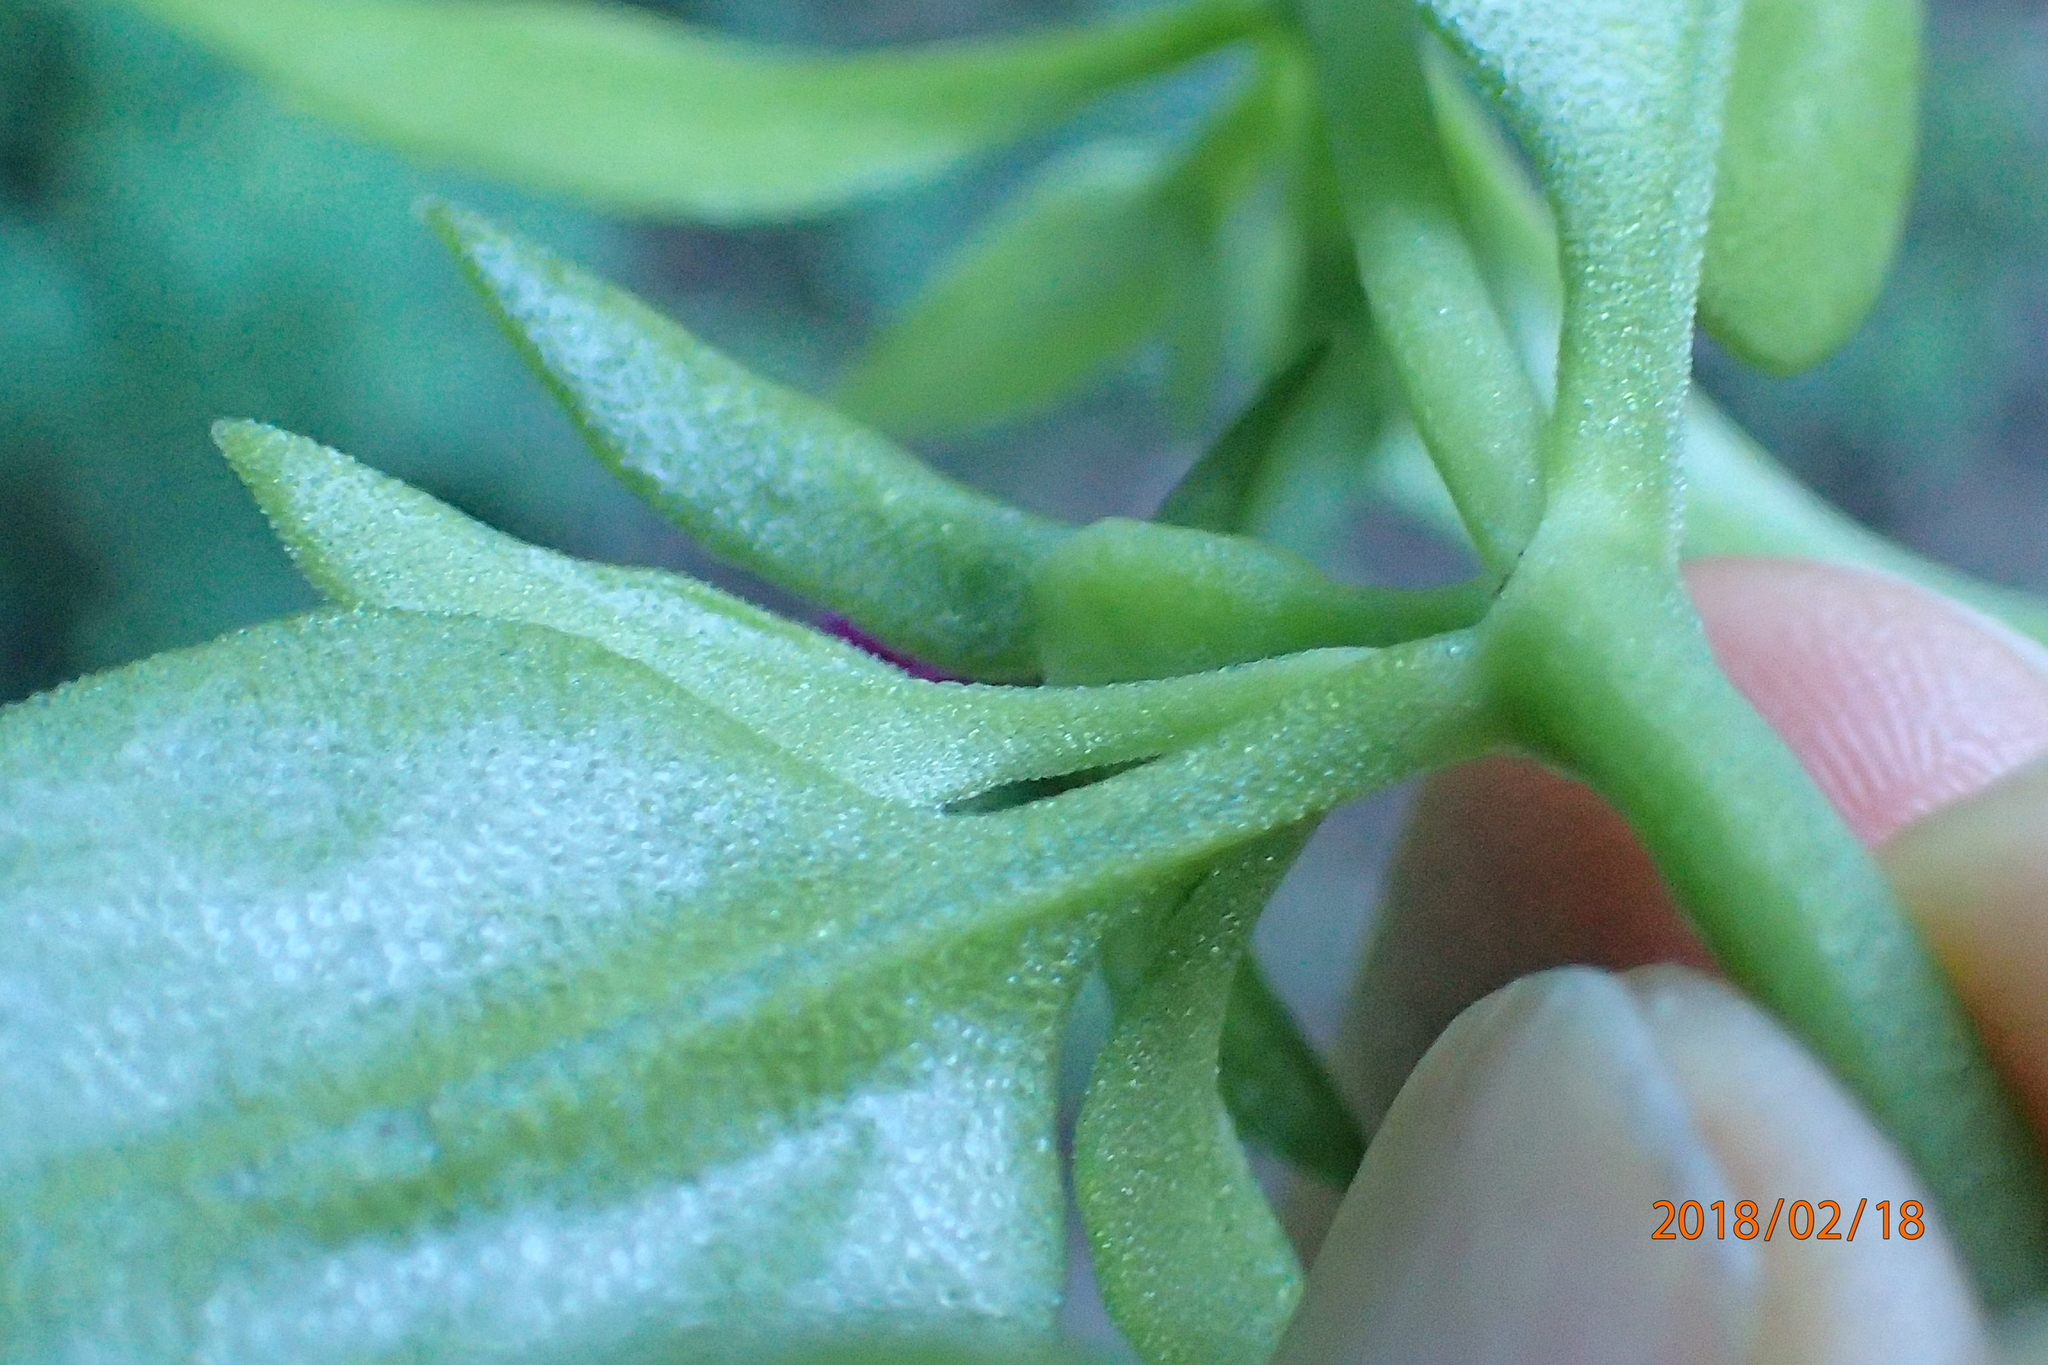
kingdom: Plantae
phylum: Tracheophyta
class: Magnoliopsida
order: Caryophyllales
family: Aizoaceae
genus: Mesembryanthemum
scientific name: Mesembryanthemum cordifolium
